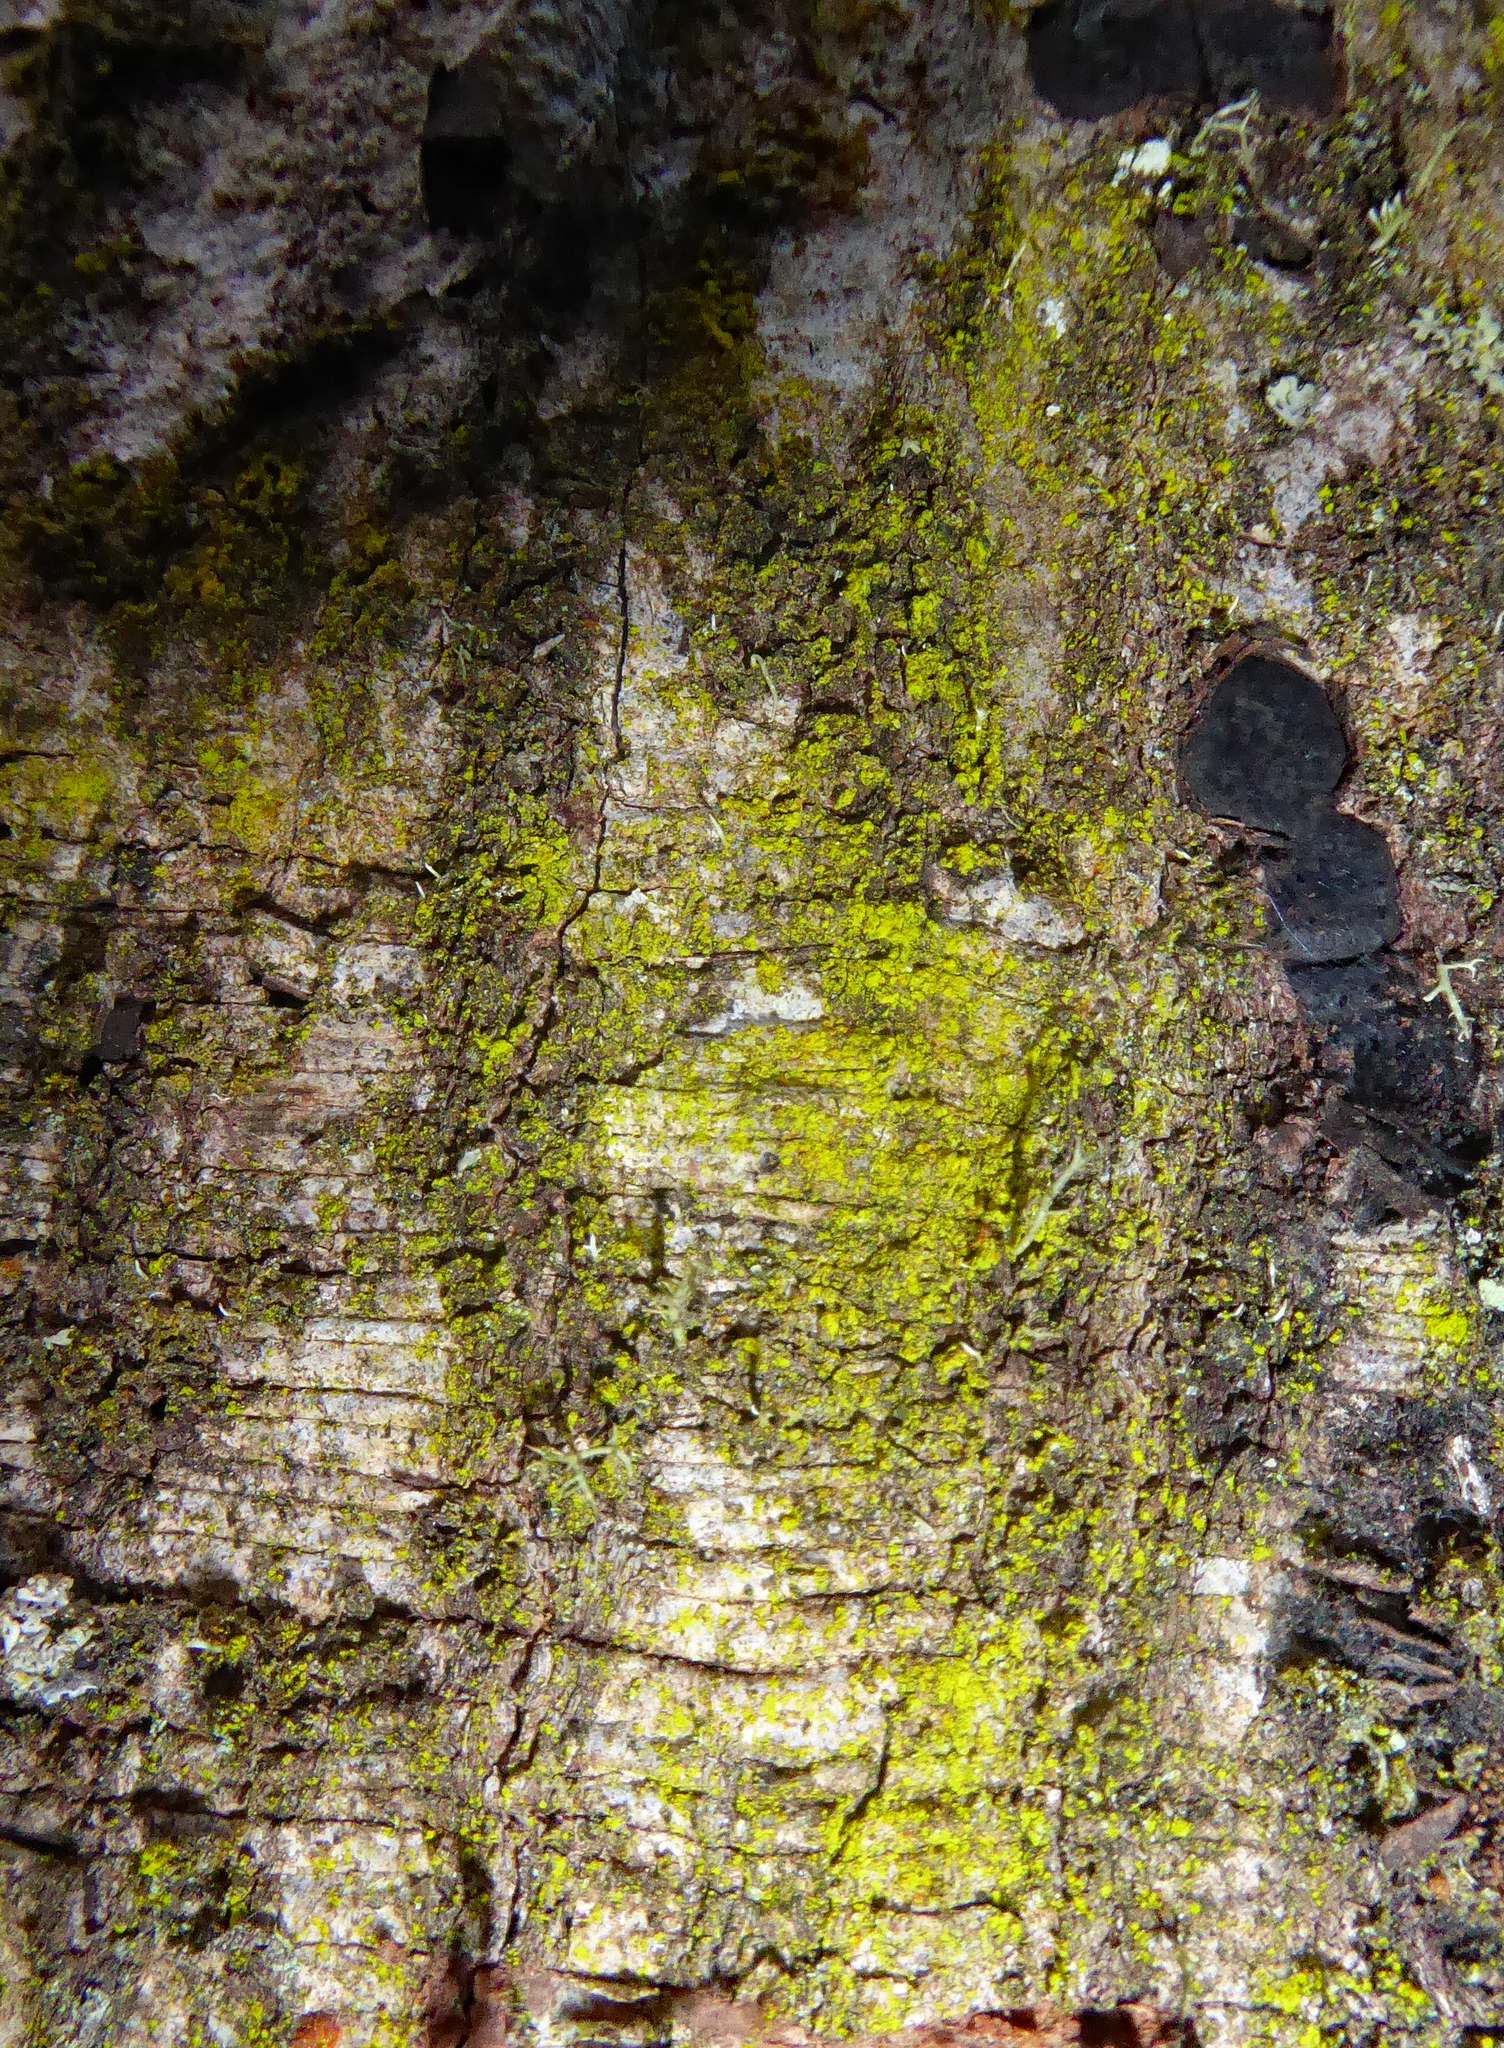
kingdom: Fungi
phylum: Ascomycota
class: Arthoniomycetes
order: Arthoniales
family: Chrysotrichaceae
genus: Chrysothrix
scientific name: Chrysothrix xanthina
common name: Common gold-dust
